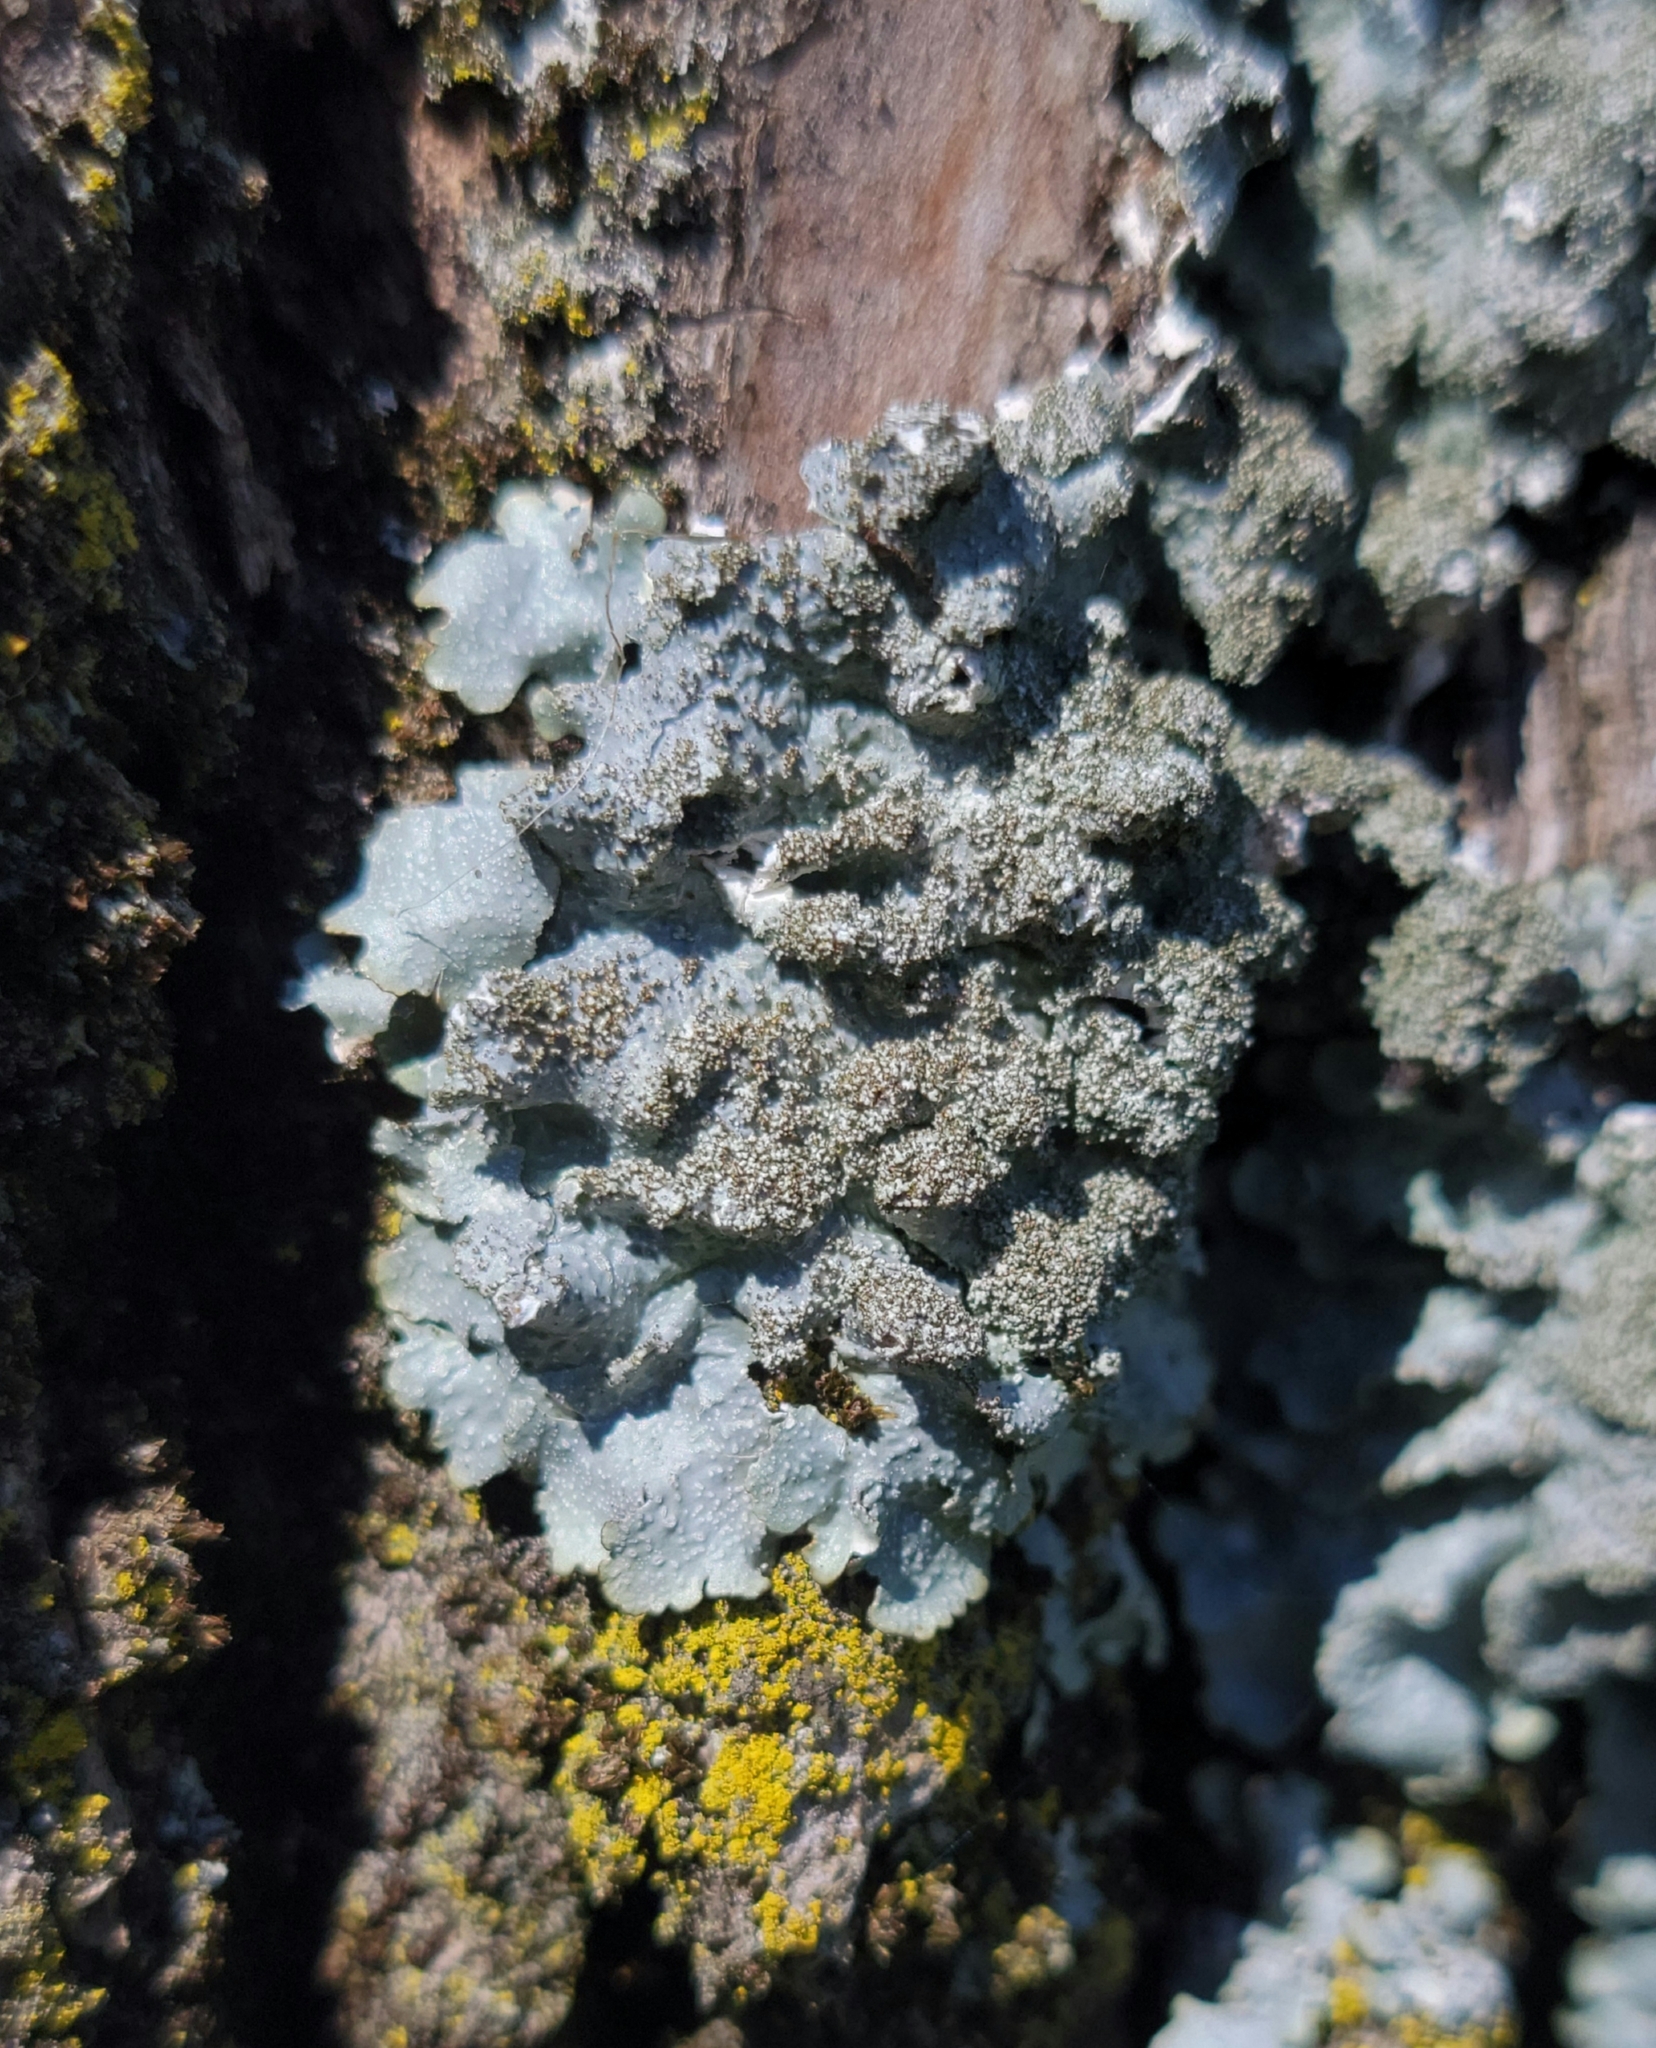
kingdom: Fungi
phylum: Ascomycota
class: Lecanoromycetes
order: Lecanorales
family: Parmeliaceae
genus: Punctelia
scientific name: Punctelia rudecta
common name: Rough speckled shield lichen
